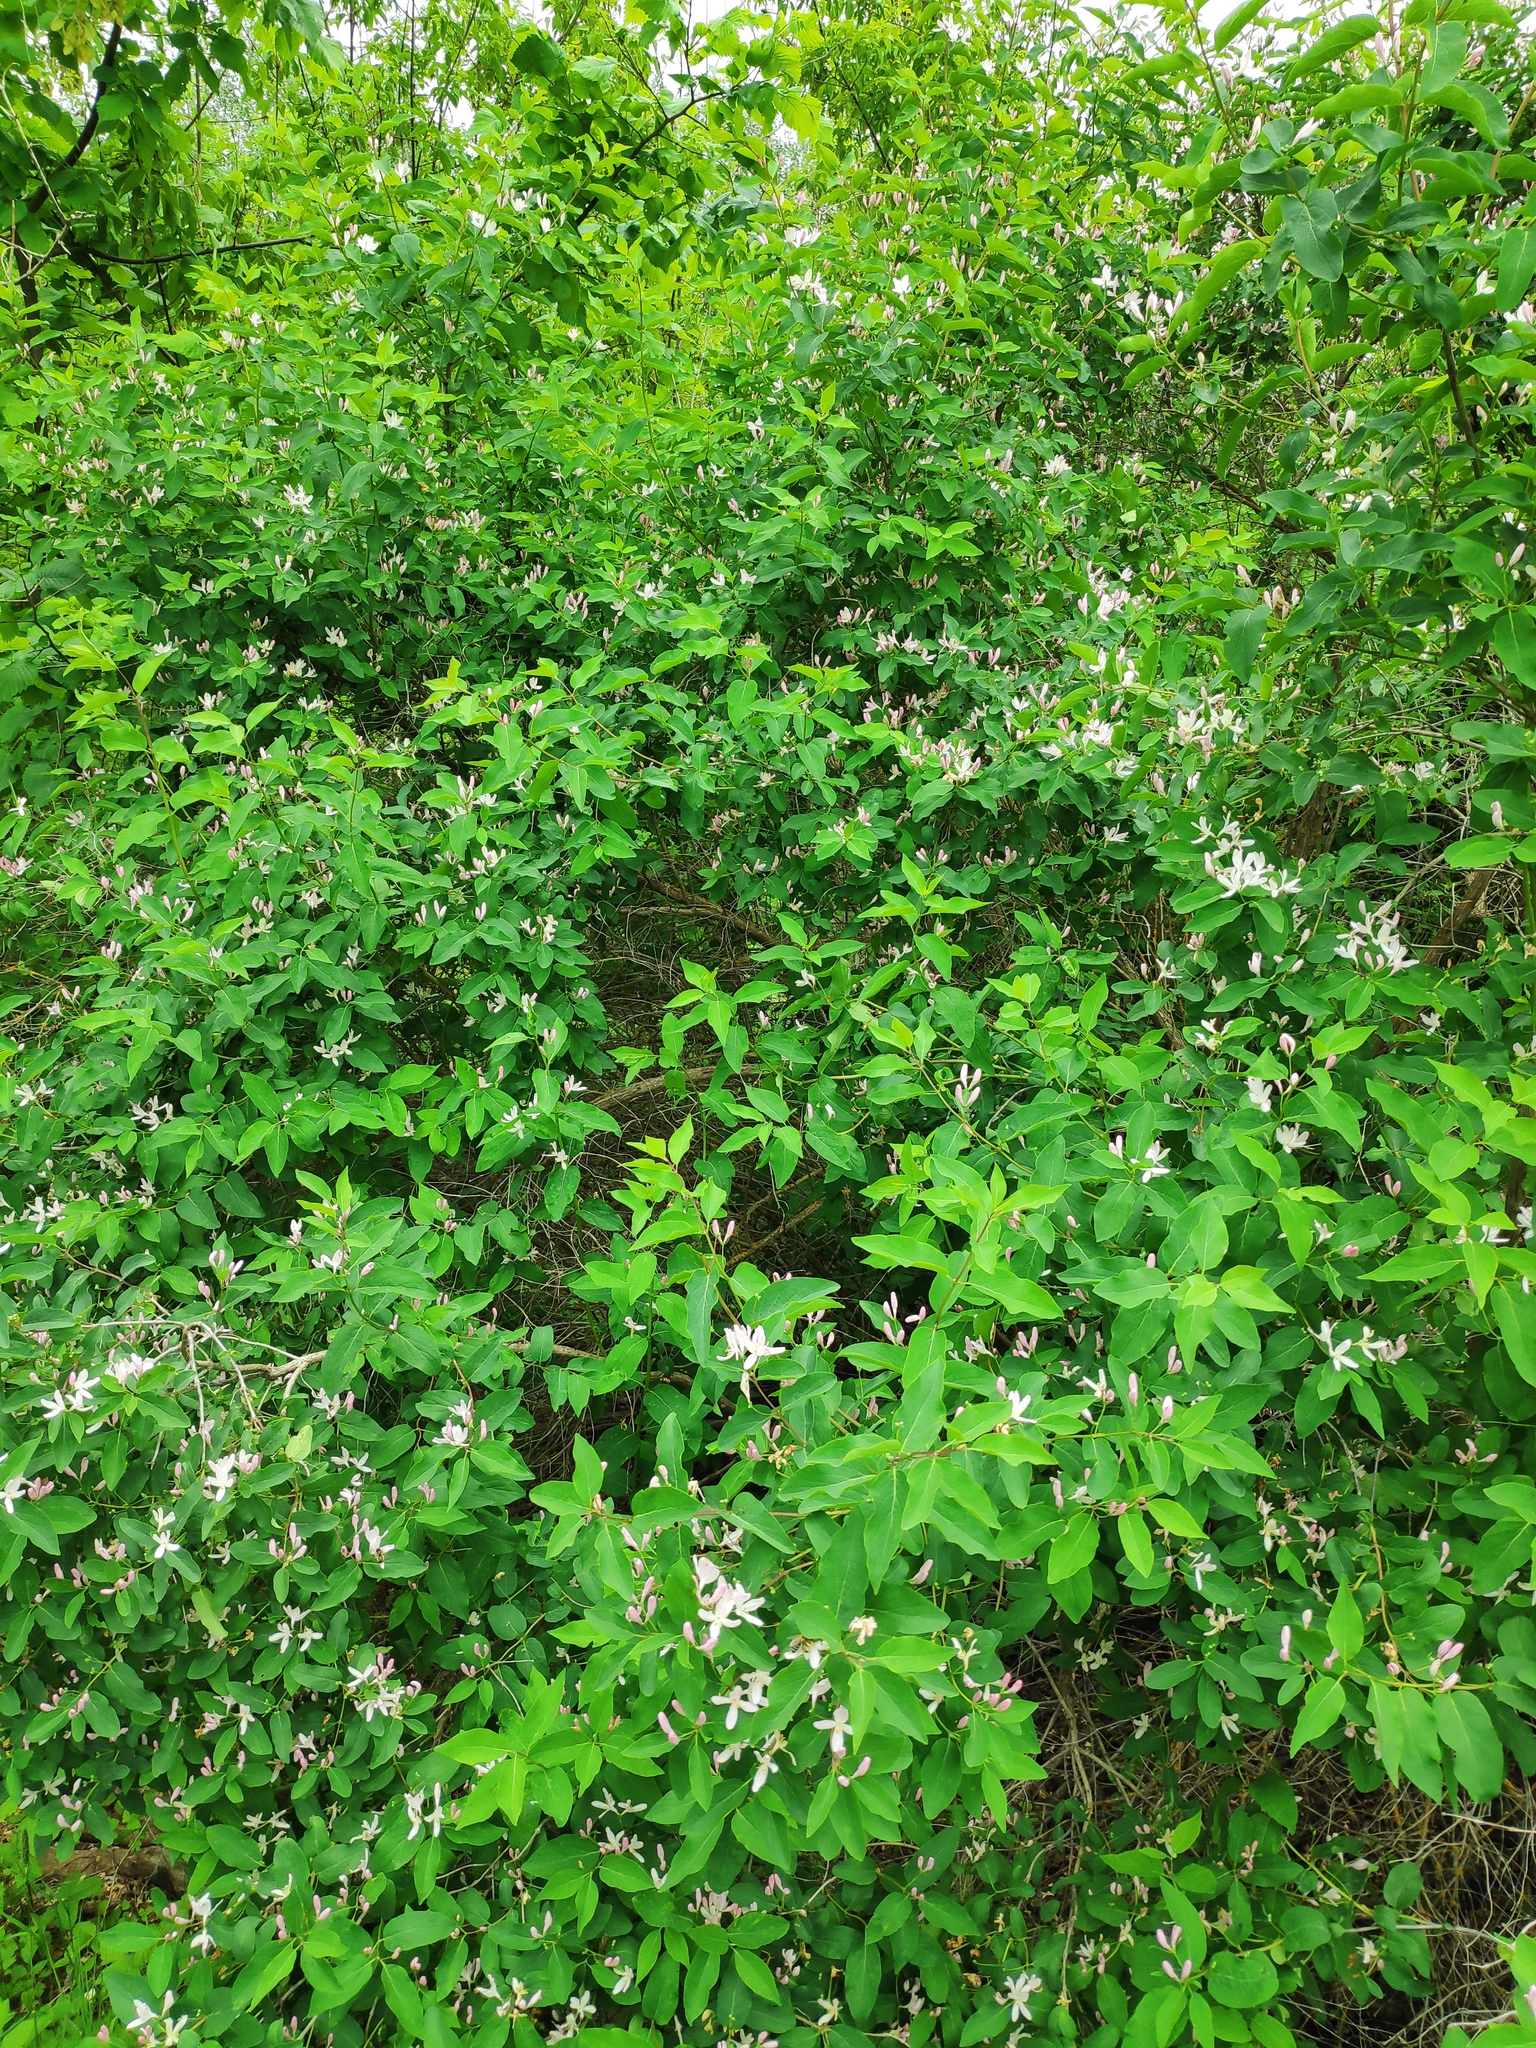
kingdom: Plantae
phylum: Tracheophyta
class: Magnoliopsida
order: Dipsacales
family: Caprifoliaceae
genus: Lonicera
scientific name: Lonicera tatarica
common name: Tatarian honeysuckle
